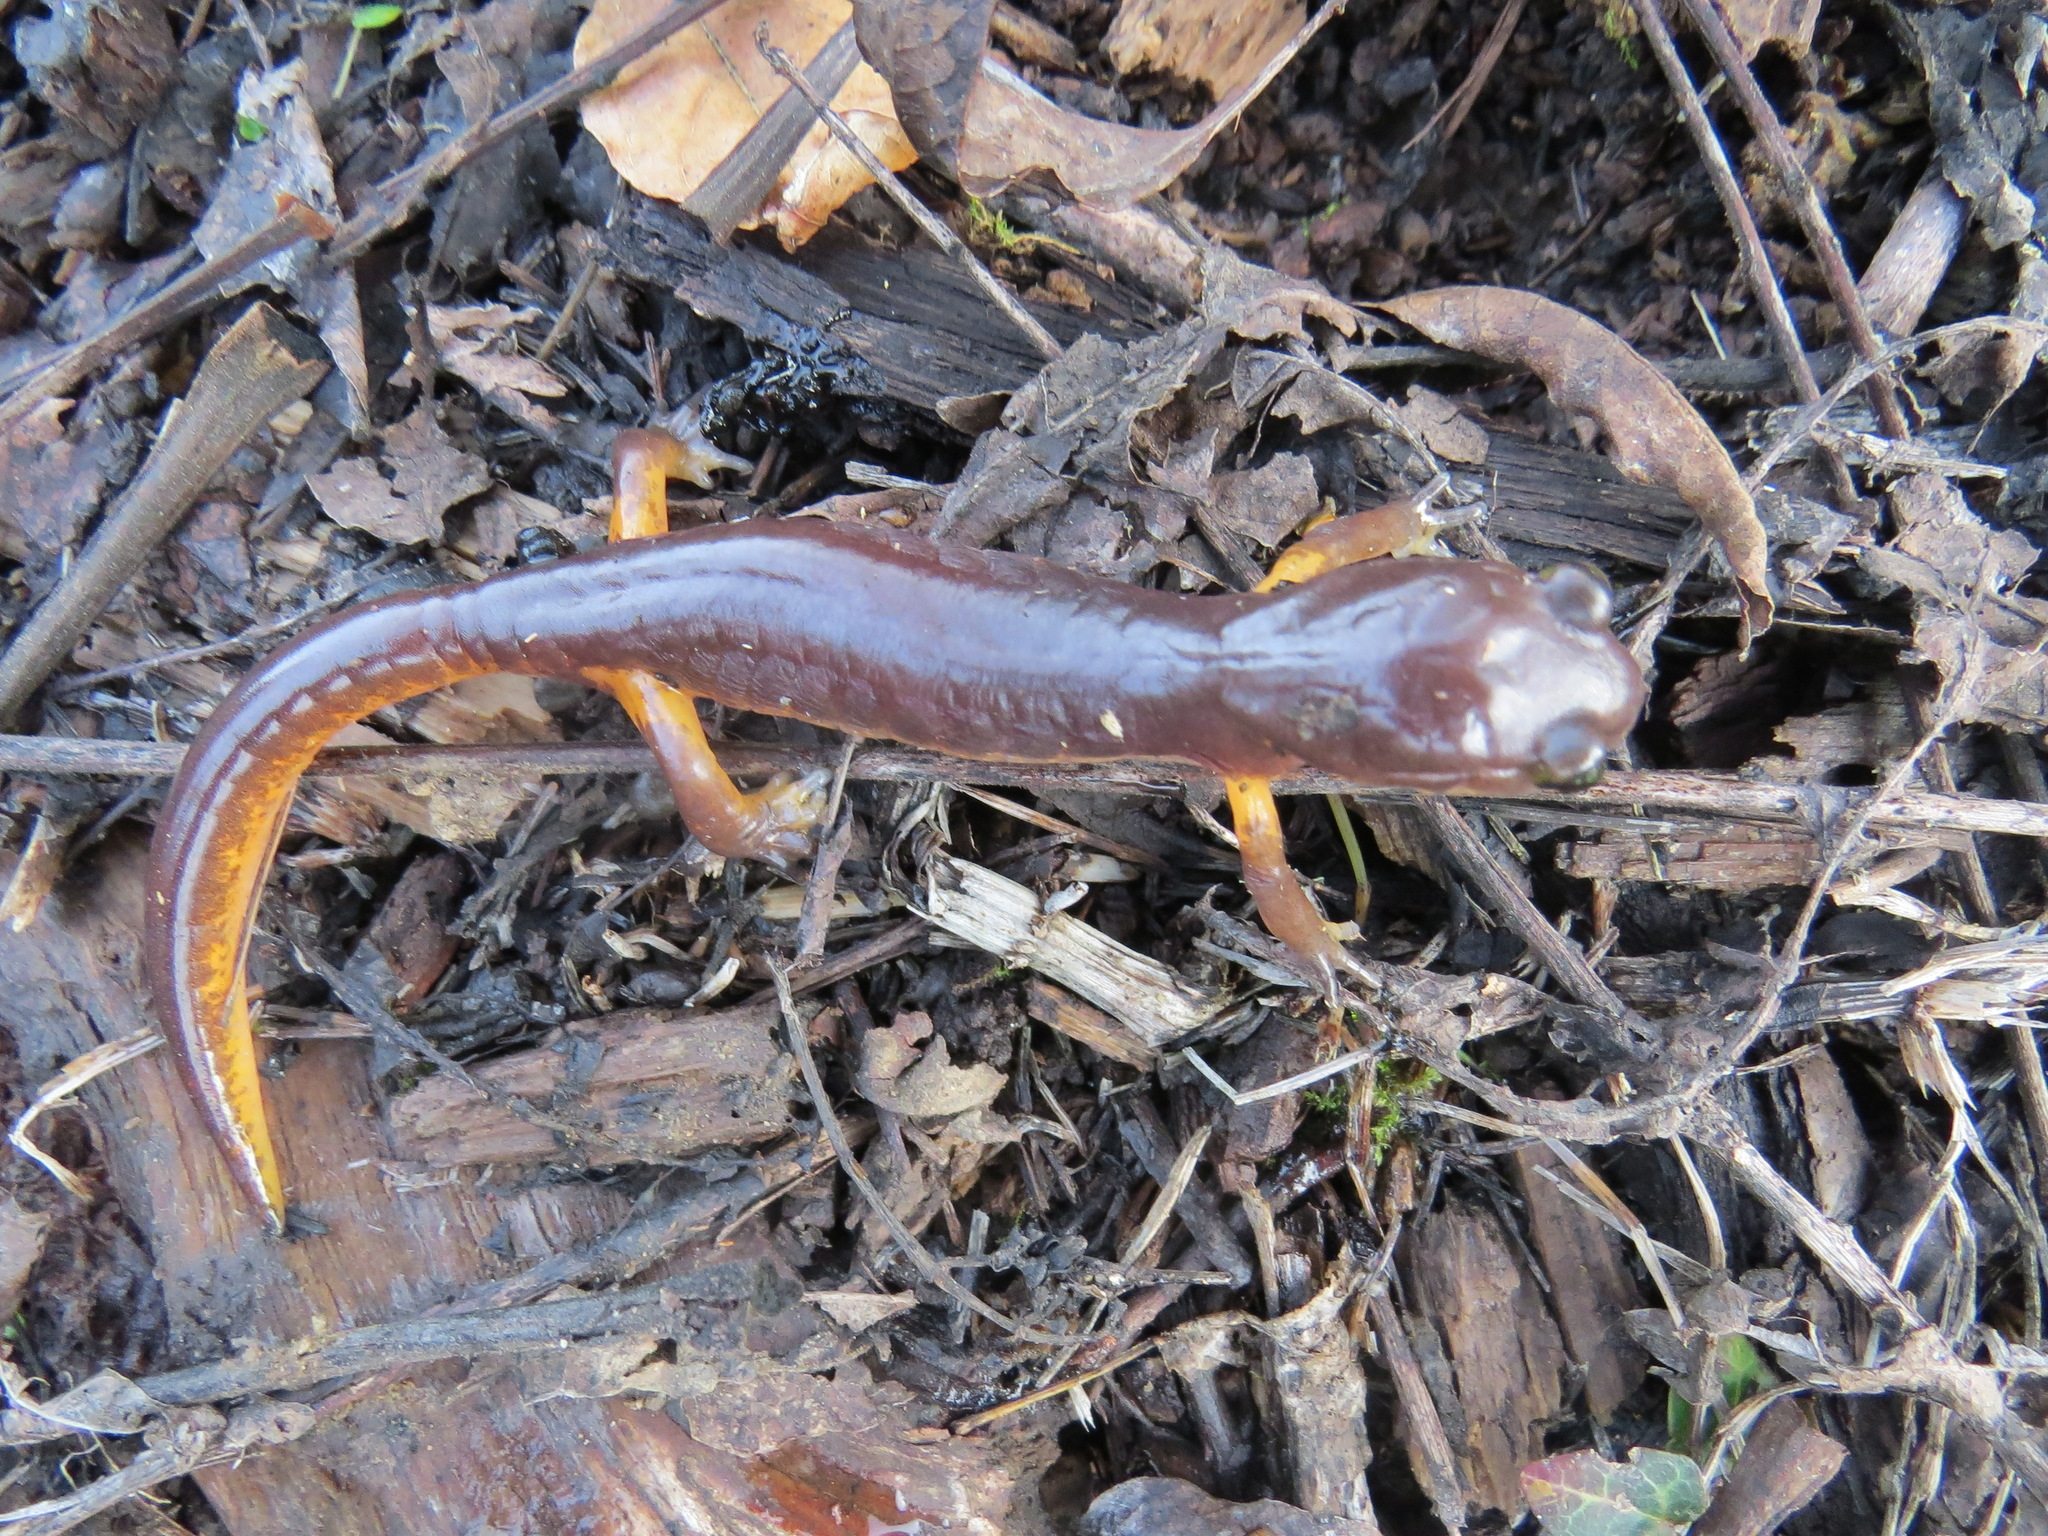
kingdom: Animalia
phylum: Chordata
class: Amphibia
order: Caudata
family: Plethodontidae
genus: Ensatina
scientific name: Ensatina eschscholtzii
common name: Ensatina
